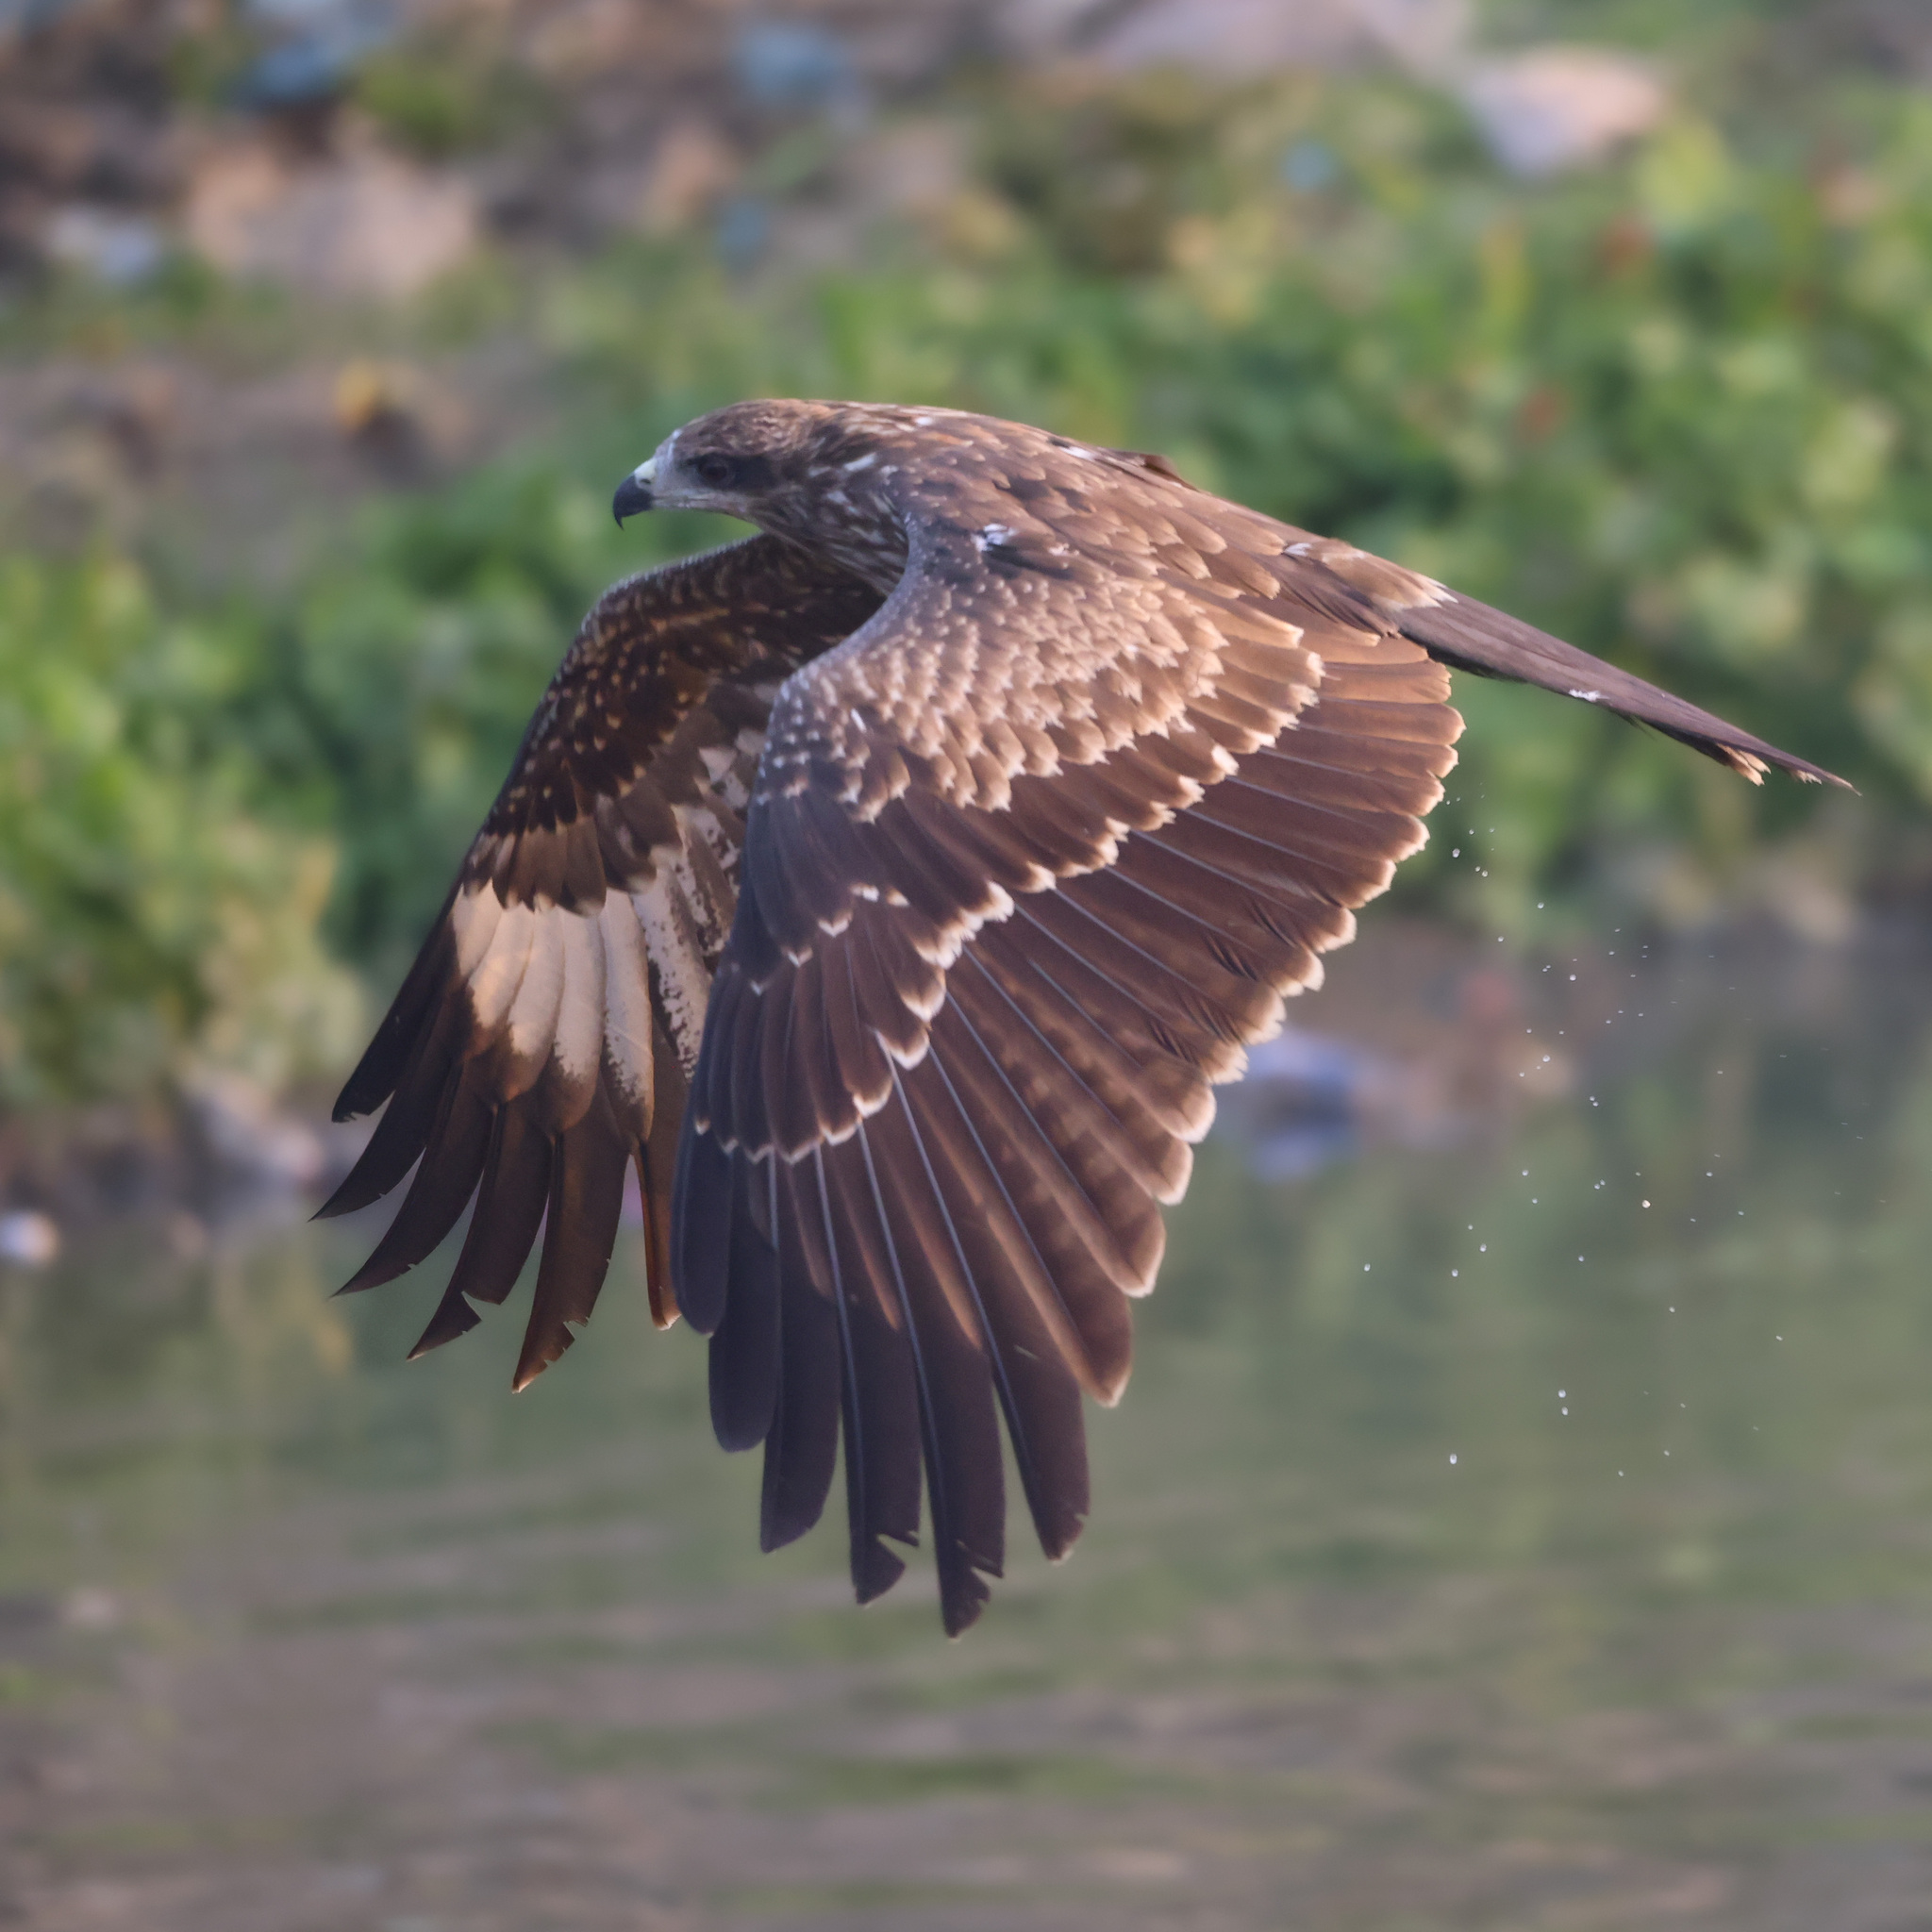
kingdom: Animalia
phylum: Chordata
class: Aves
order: Accipitriformes
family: Accipitridae
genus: Milvus
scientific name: Milvus migrans
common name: Black kite
